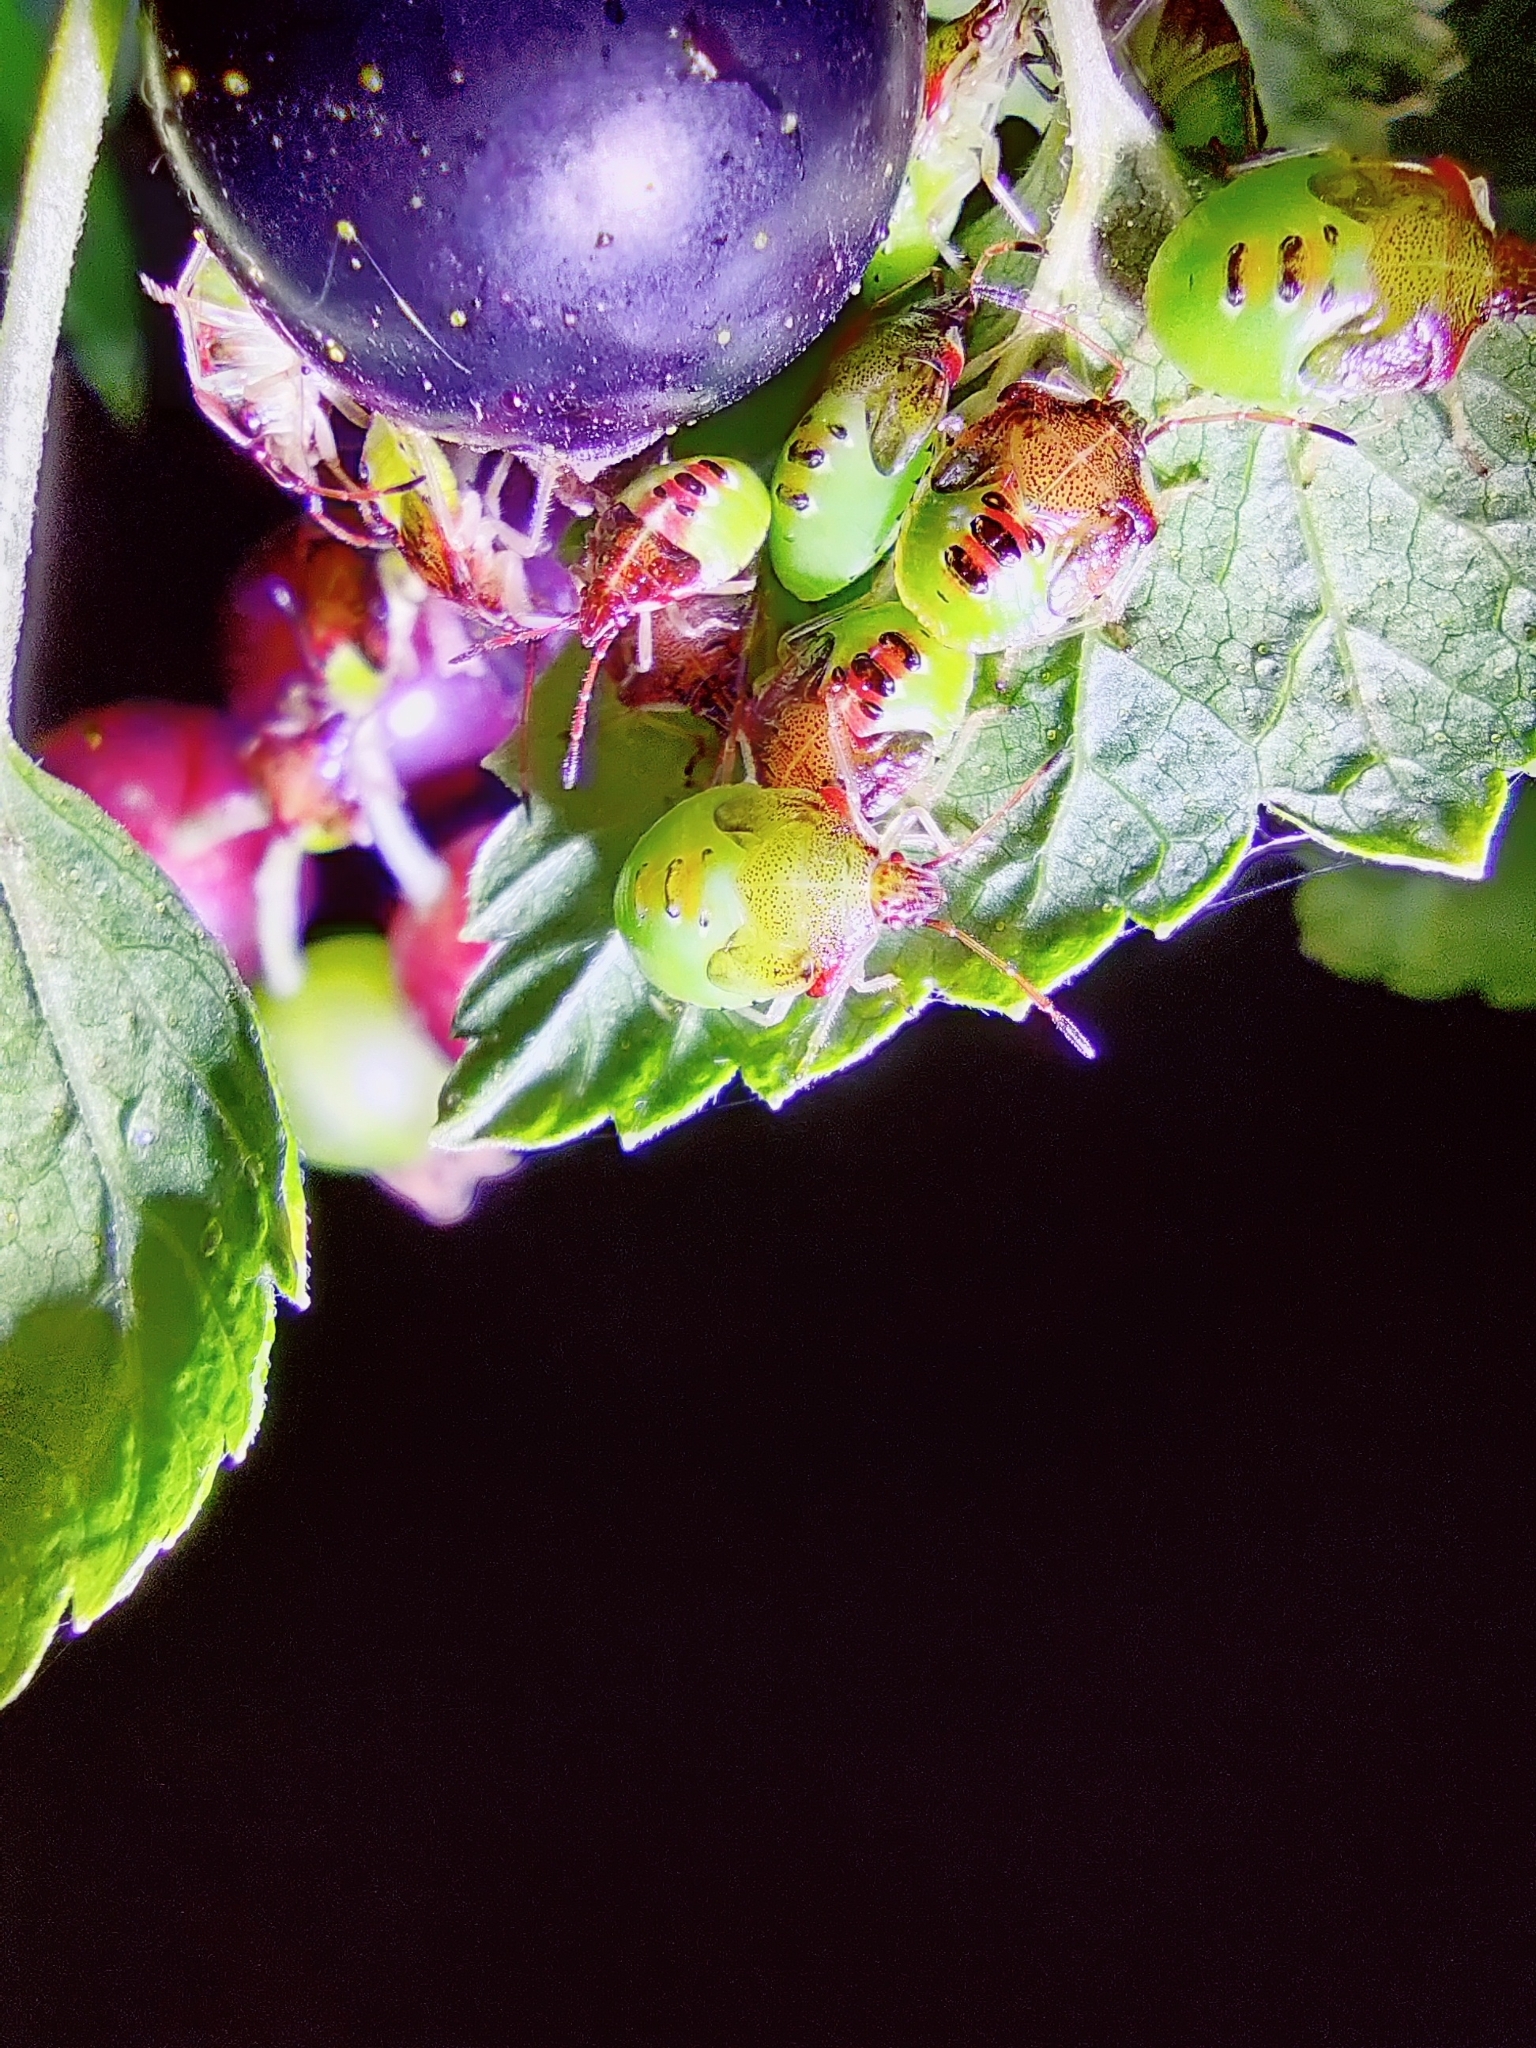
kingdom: Animalia
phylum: Arthropoda
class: Insecta
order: Hemiptera
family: Acanthosomatidae
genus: Elasmucha
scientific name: Elasmucha ferrugata
